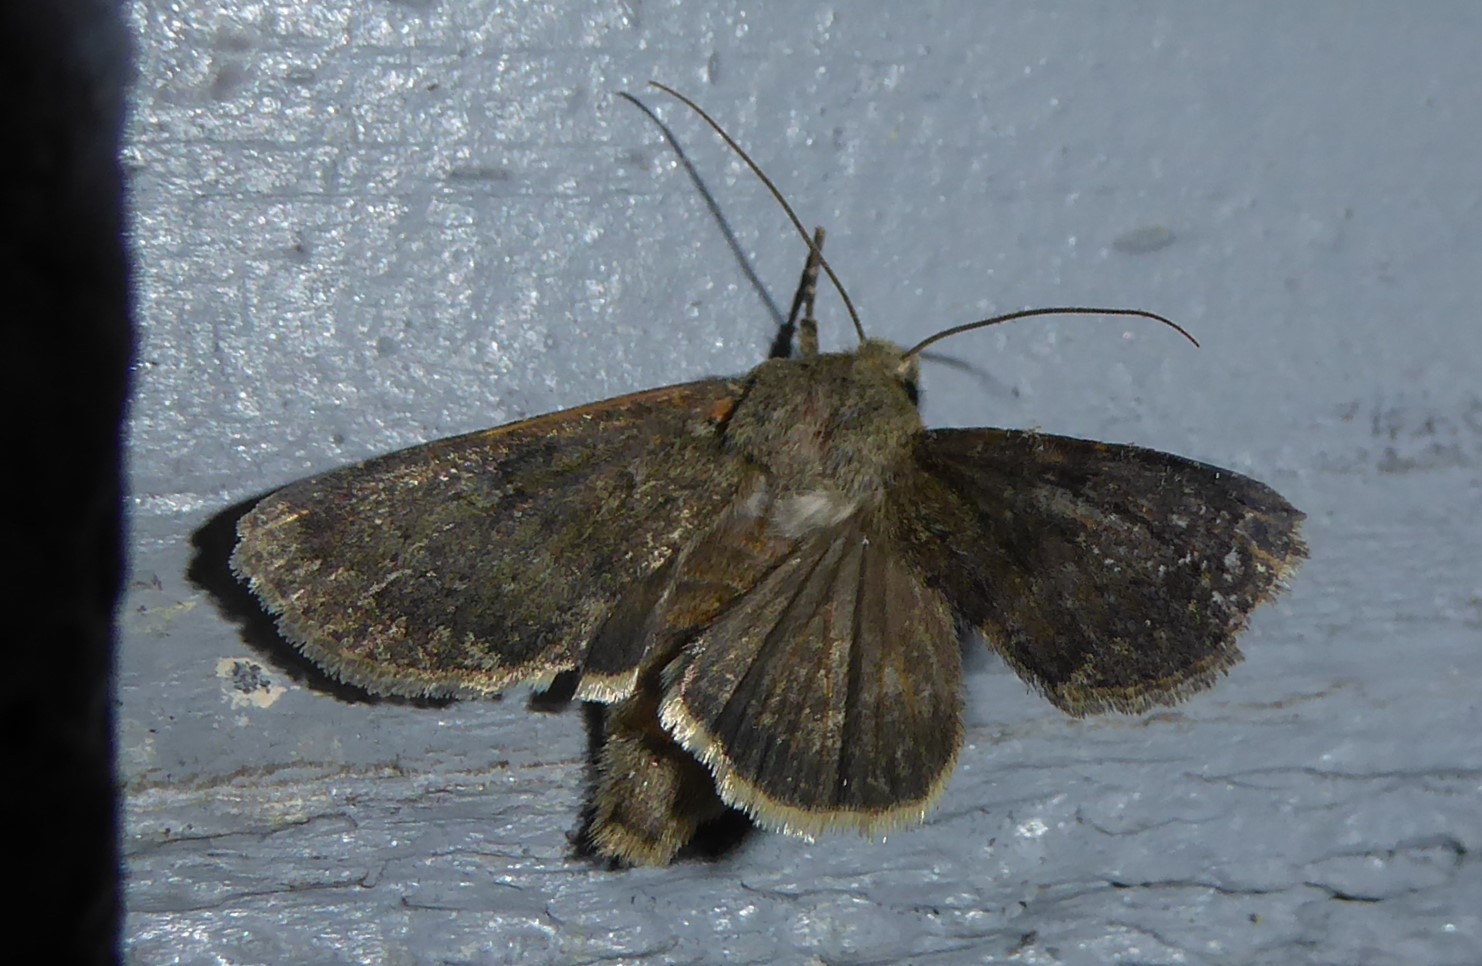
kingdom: Animalia
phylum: Arthropoda
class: Insecta
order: Lepidoptera
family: Noctuidae
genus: Ichneutica
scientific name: Ichneutica moderata
